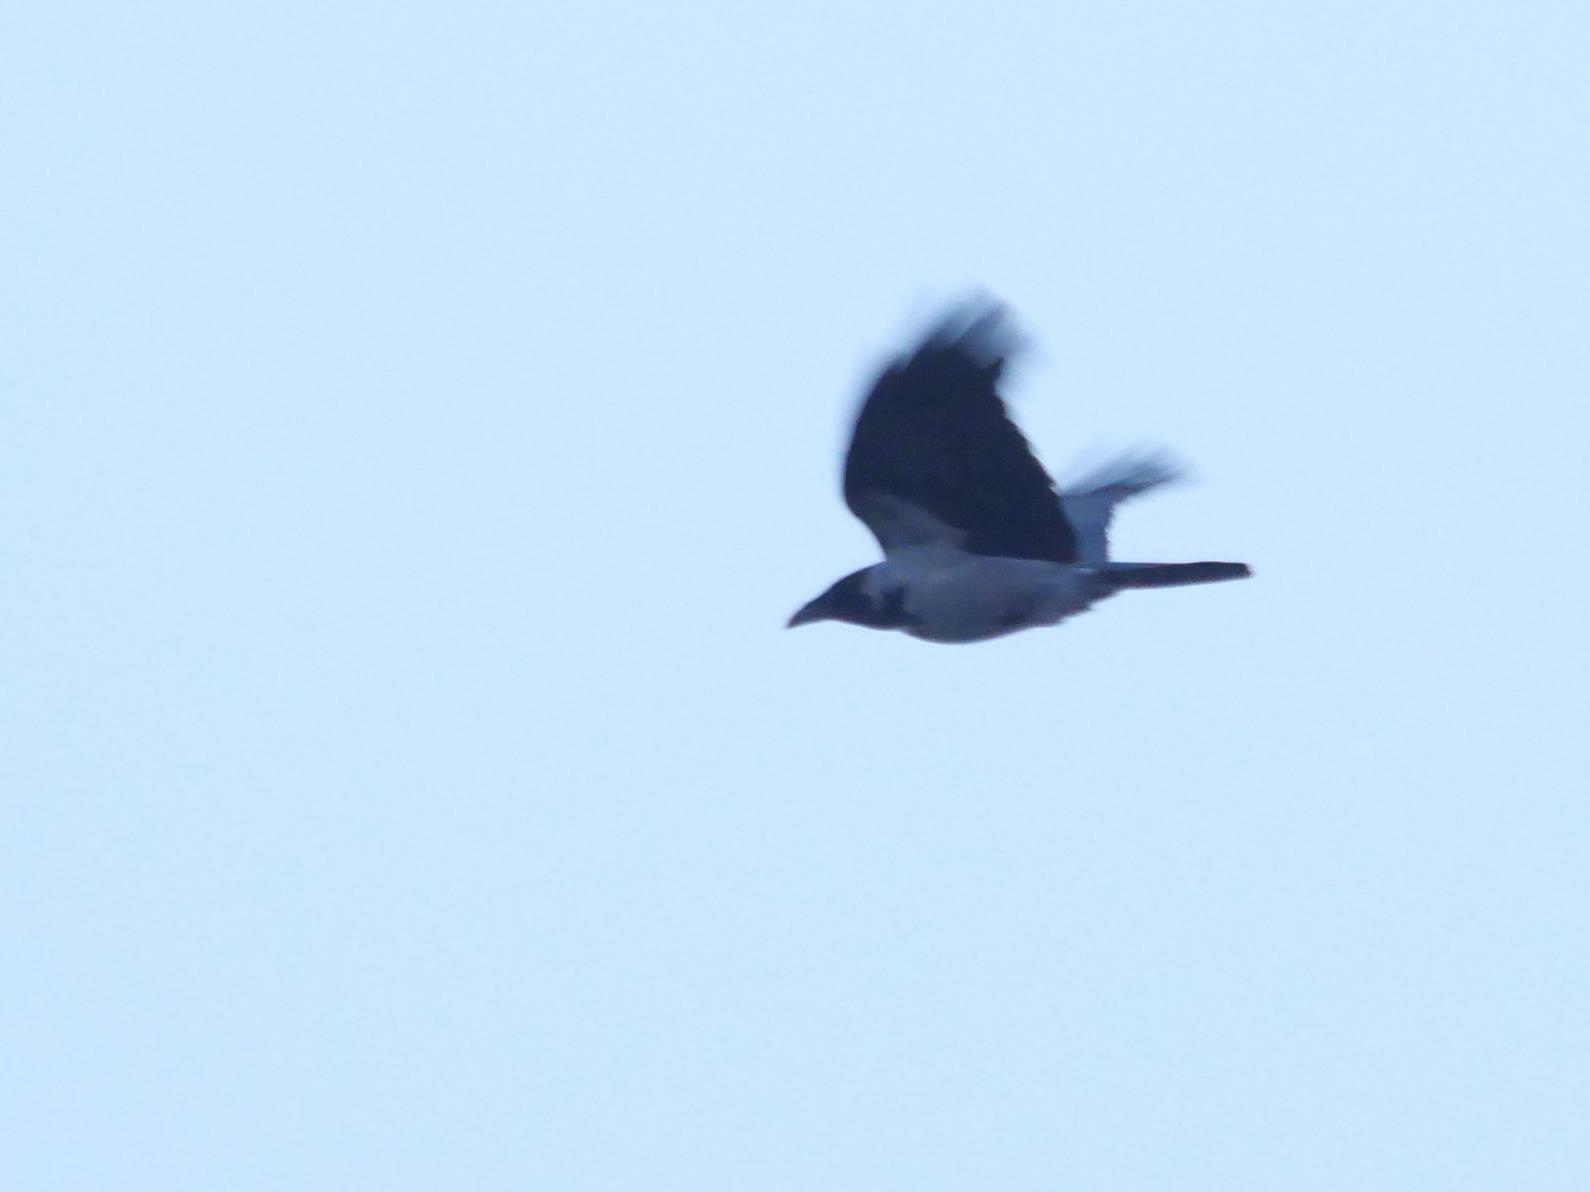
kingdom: Animalia
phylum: Chordata
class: Aves
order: Passeriformes
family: Corvidae
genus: Corvus
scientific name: Corvus cornix
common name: Hooded crow
